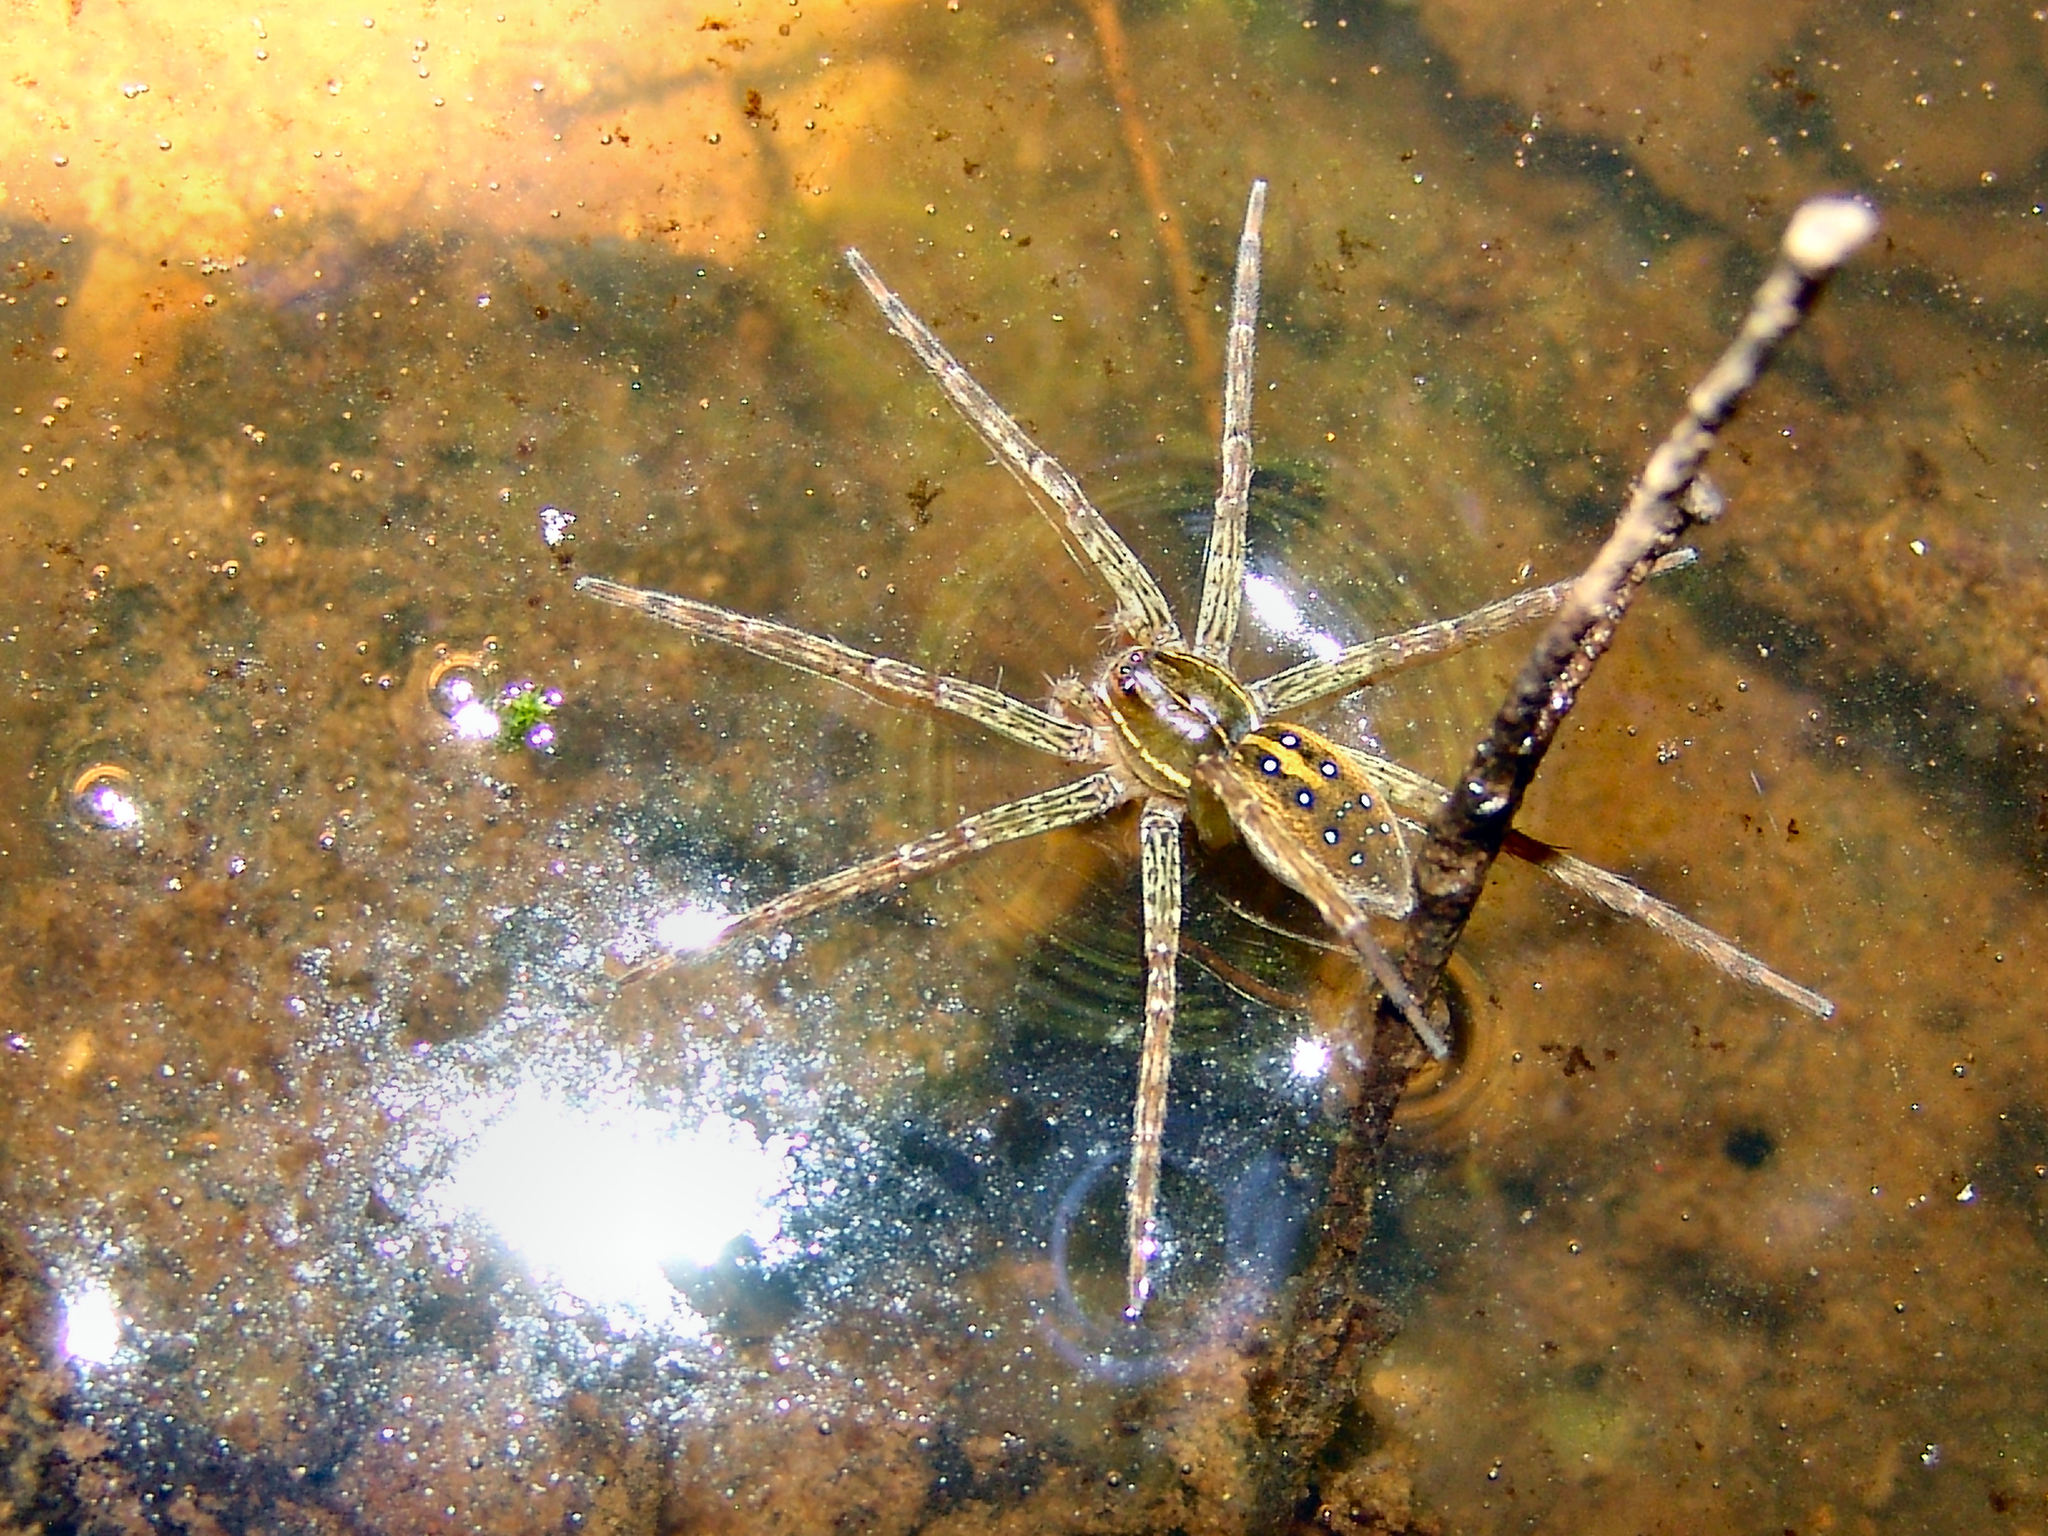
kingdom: Animalia
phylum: Arthropoda
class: Arachnida
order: Araneae
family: Pisauridae
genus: Dolomedes
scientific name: Dolomedes triton
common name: Six-spotted fishing spider
